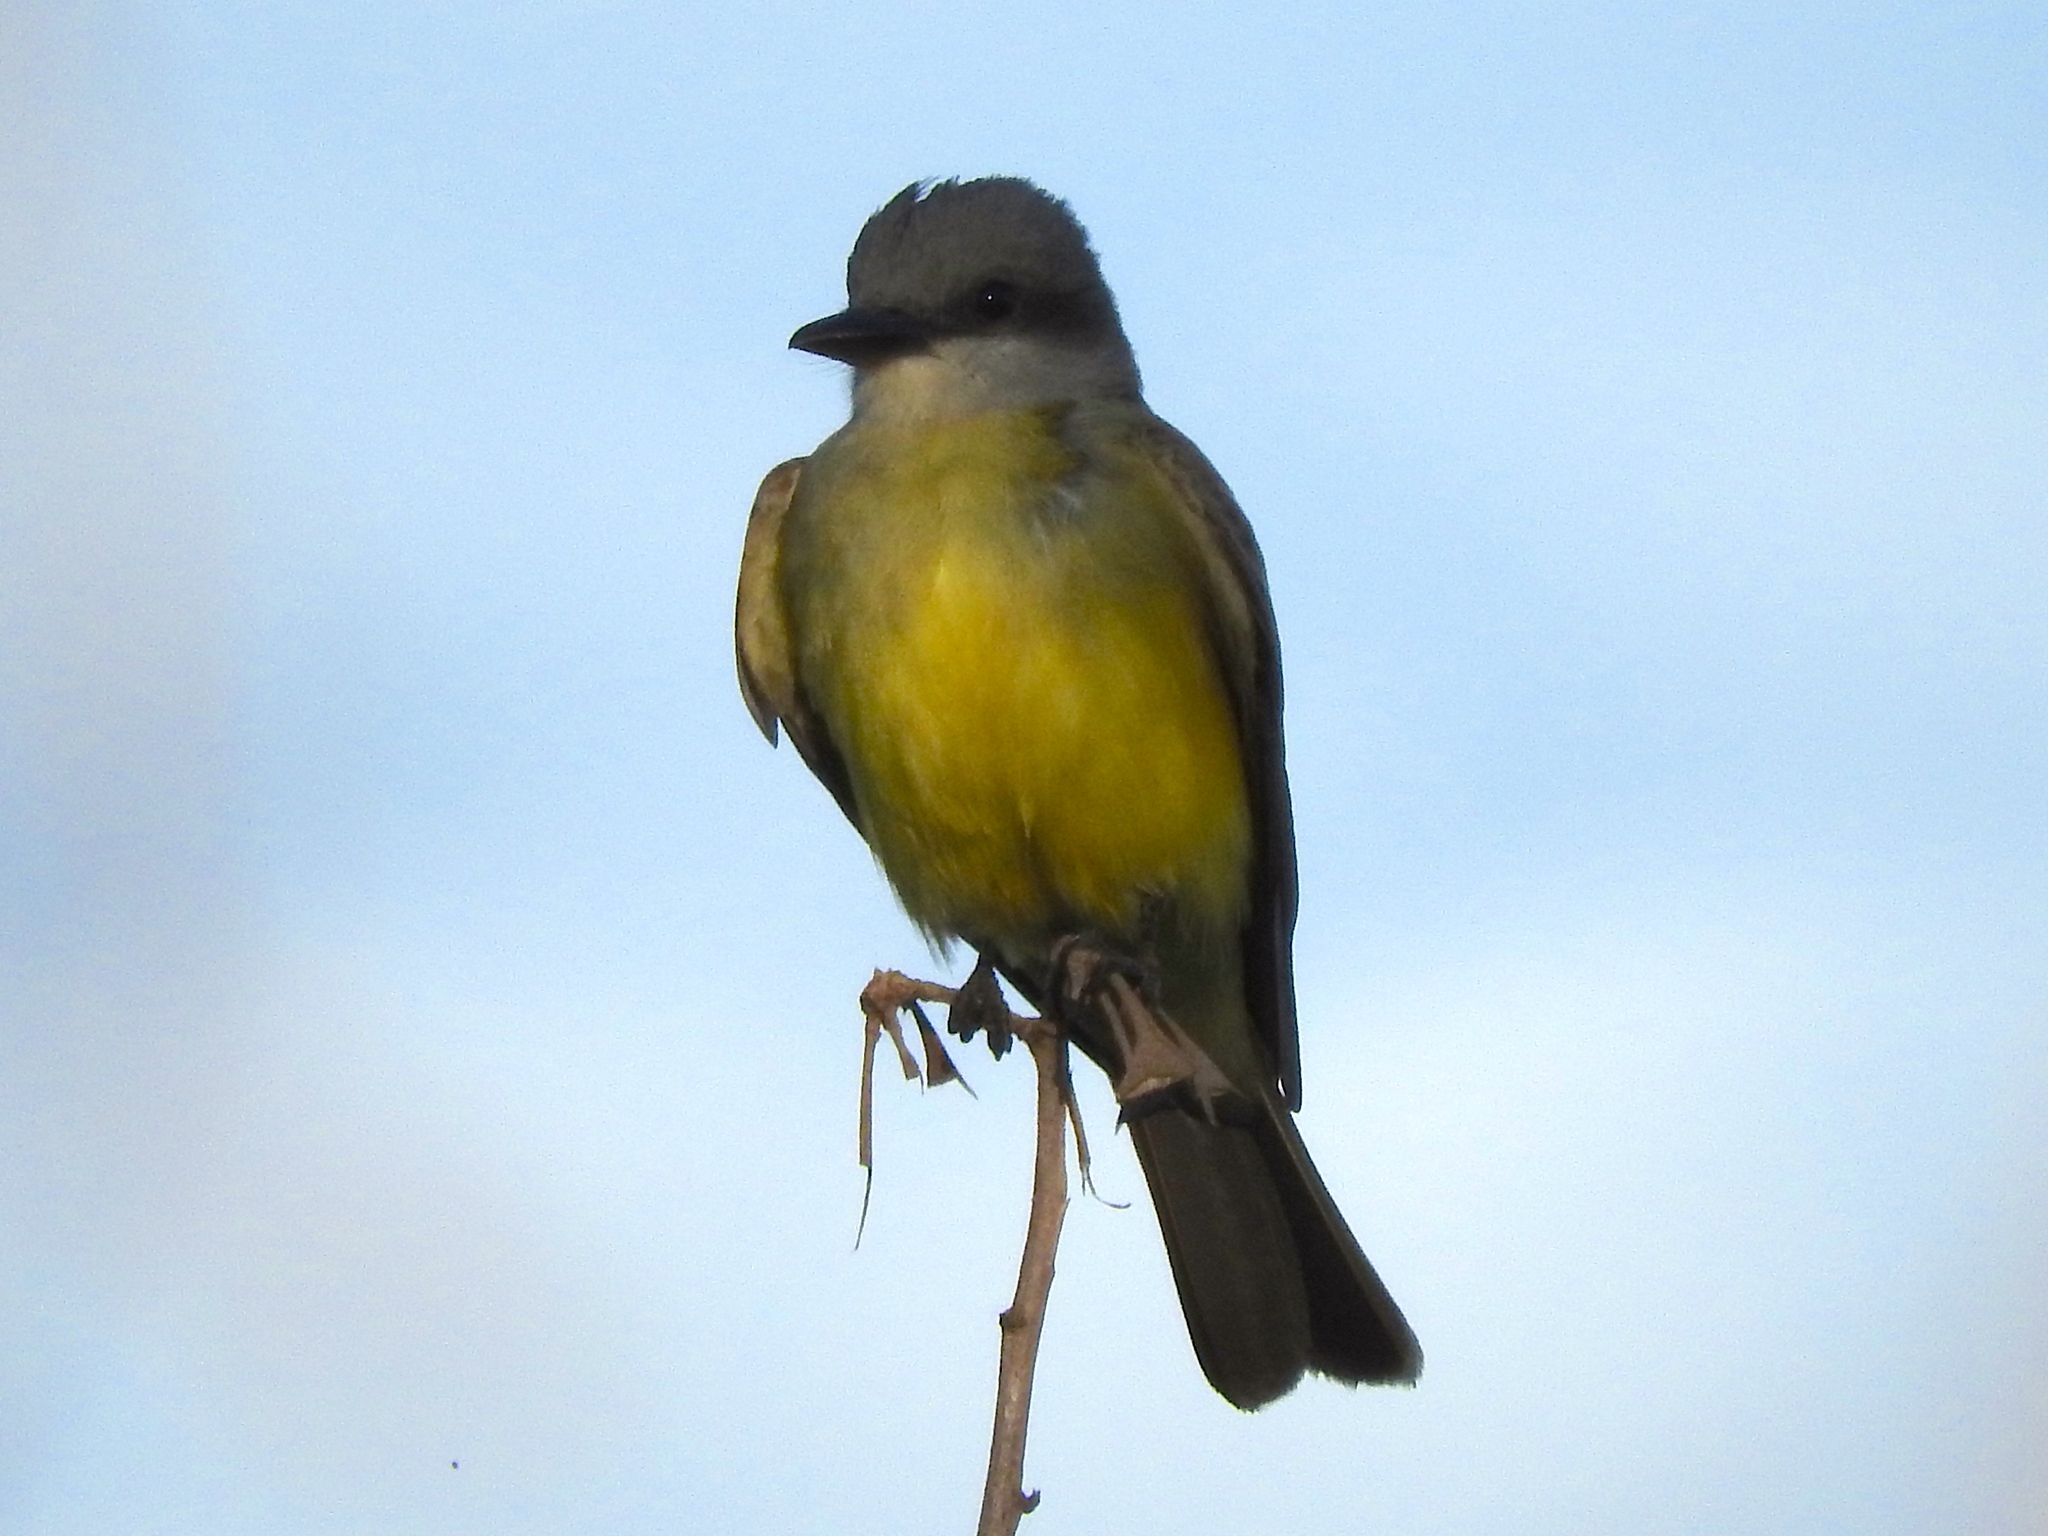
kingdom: Animalia
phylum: Chordata
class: Aves
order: Passeriformes
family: Tyrannidae
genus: Tyrannus
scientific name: Tyrannus melancholicus
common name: Tropical kingbird
